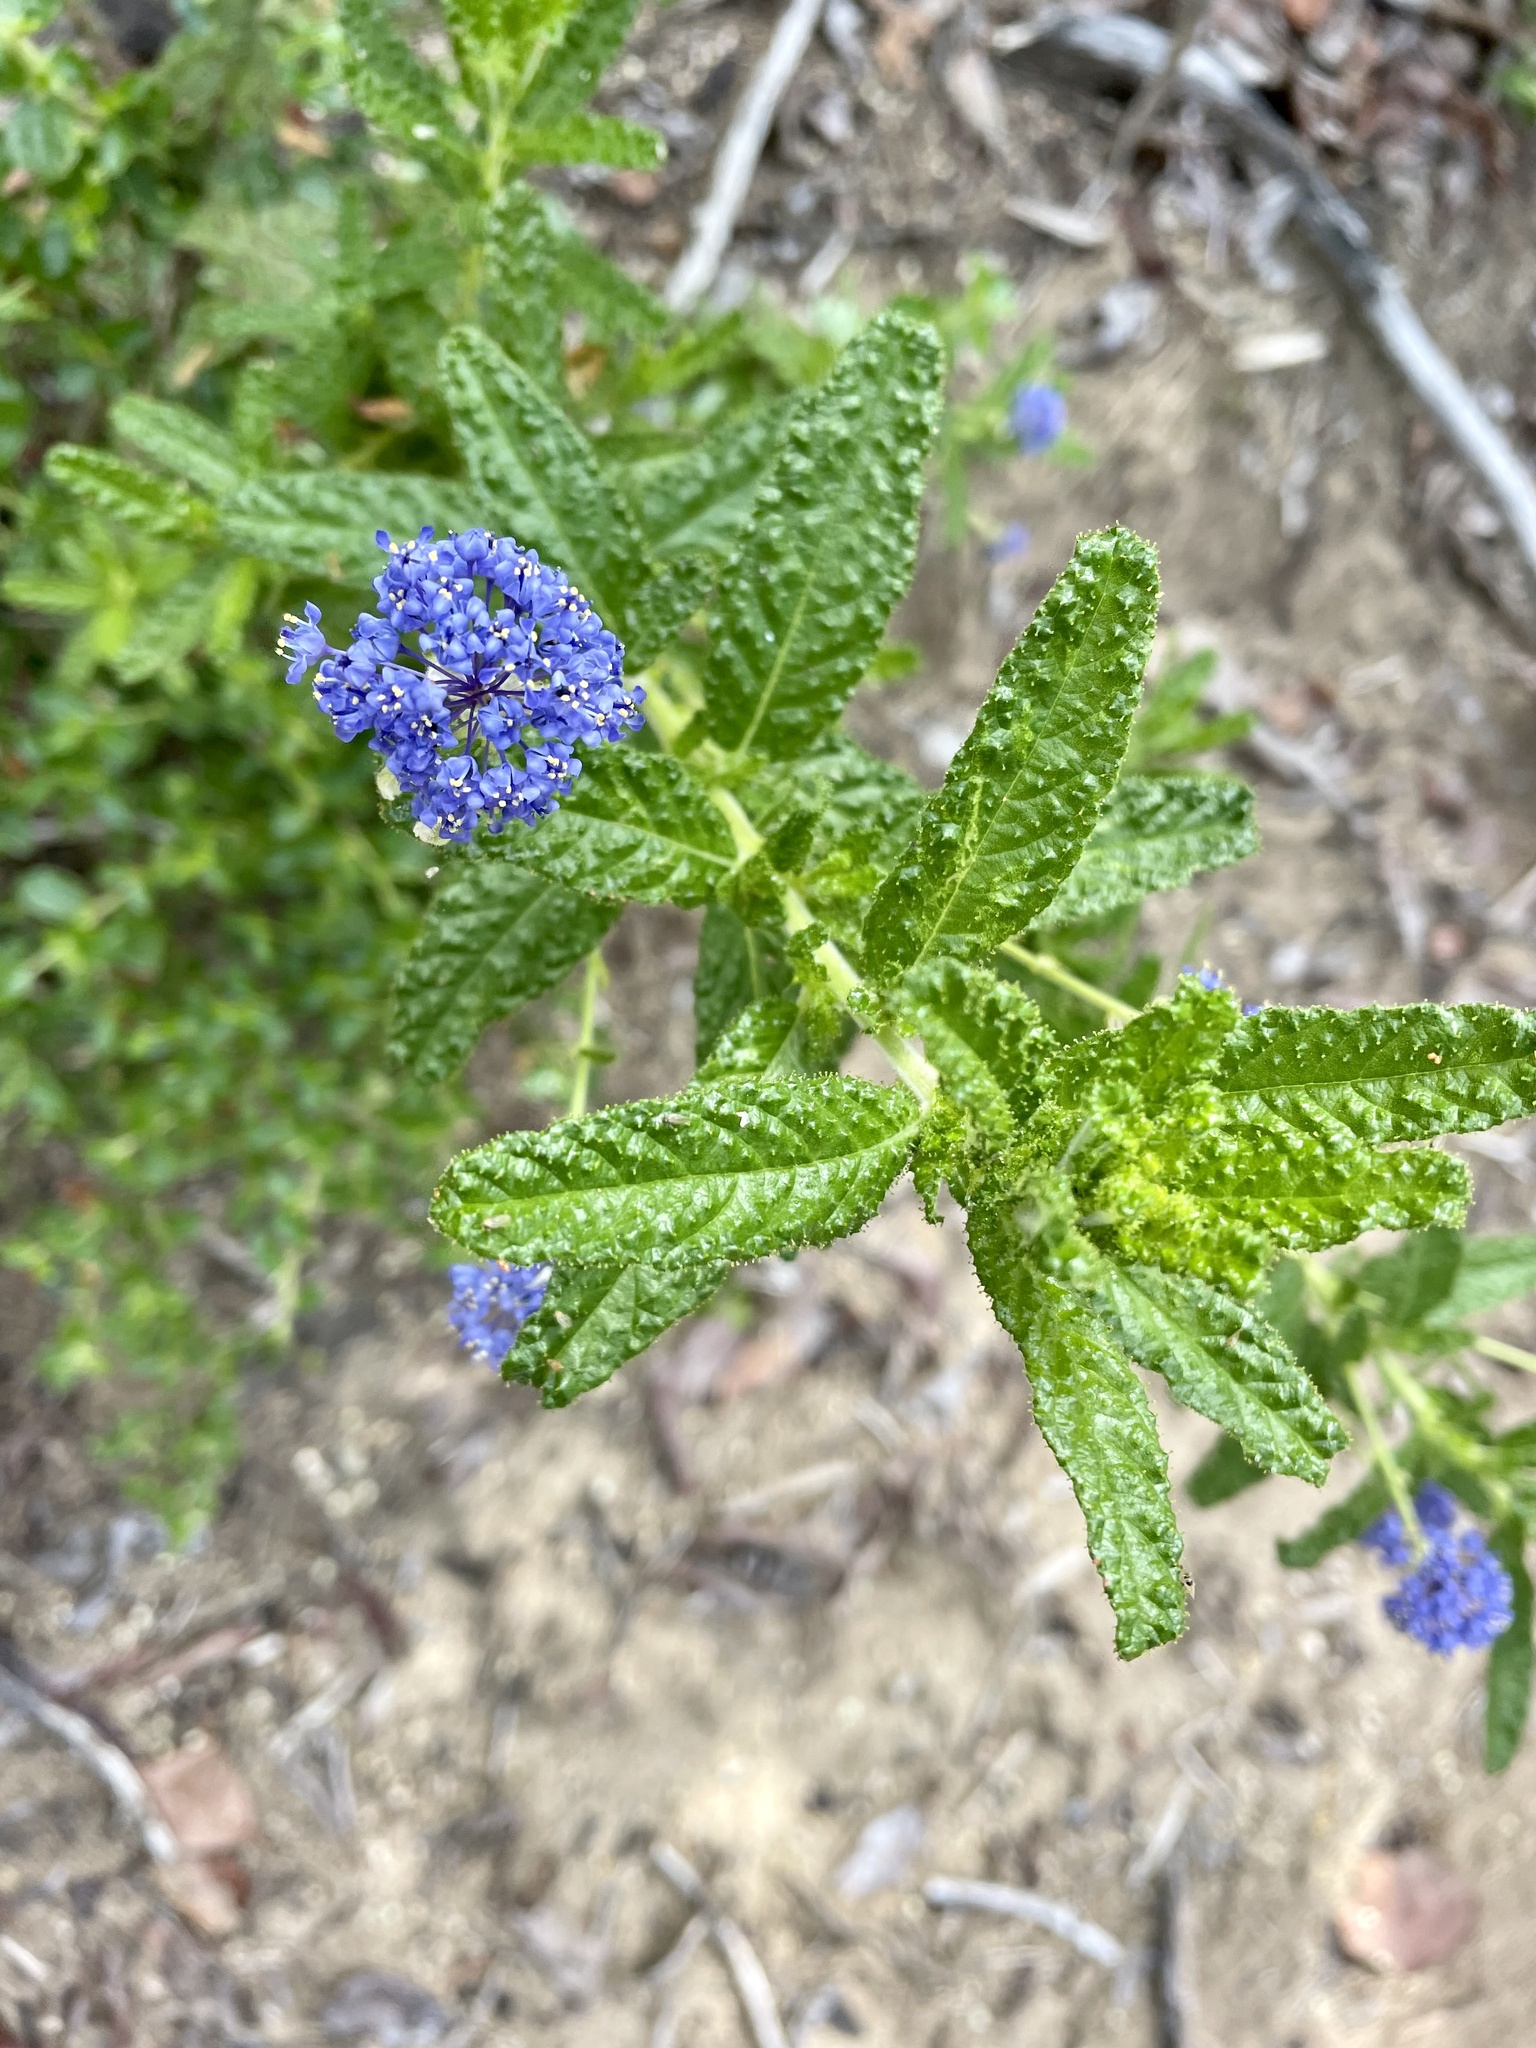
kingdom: Plantae
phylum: Tracheophyta
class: Magnoliopsida
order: Rosales
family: Rhamnaceae
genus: Ceanothus
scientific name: Ceanothus papillosus
